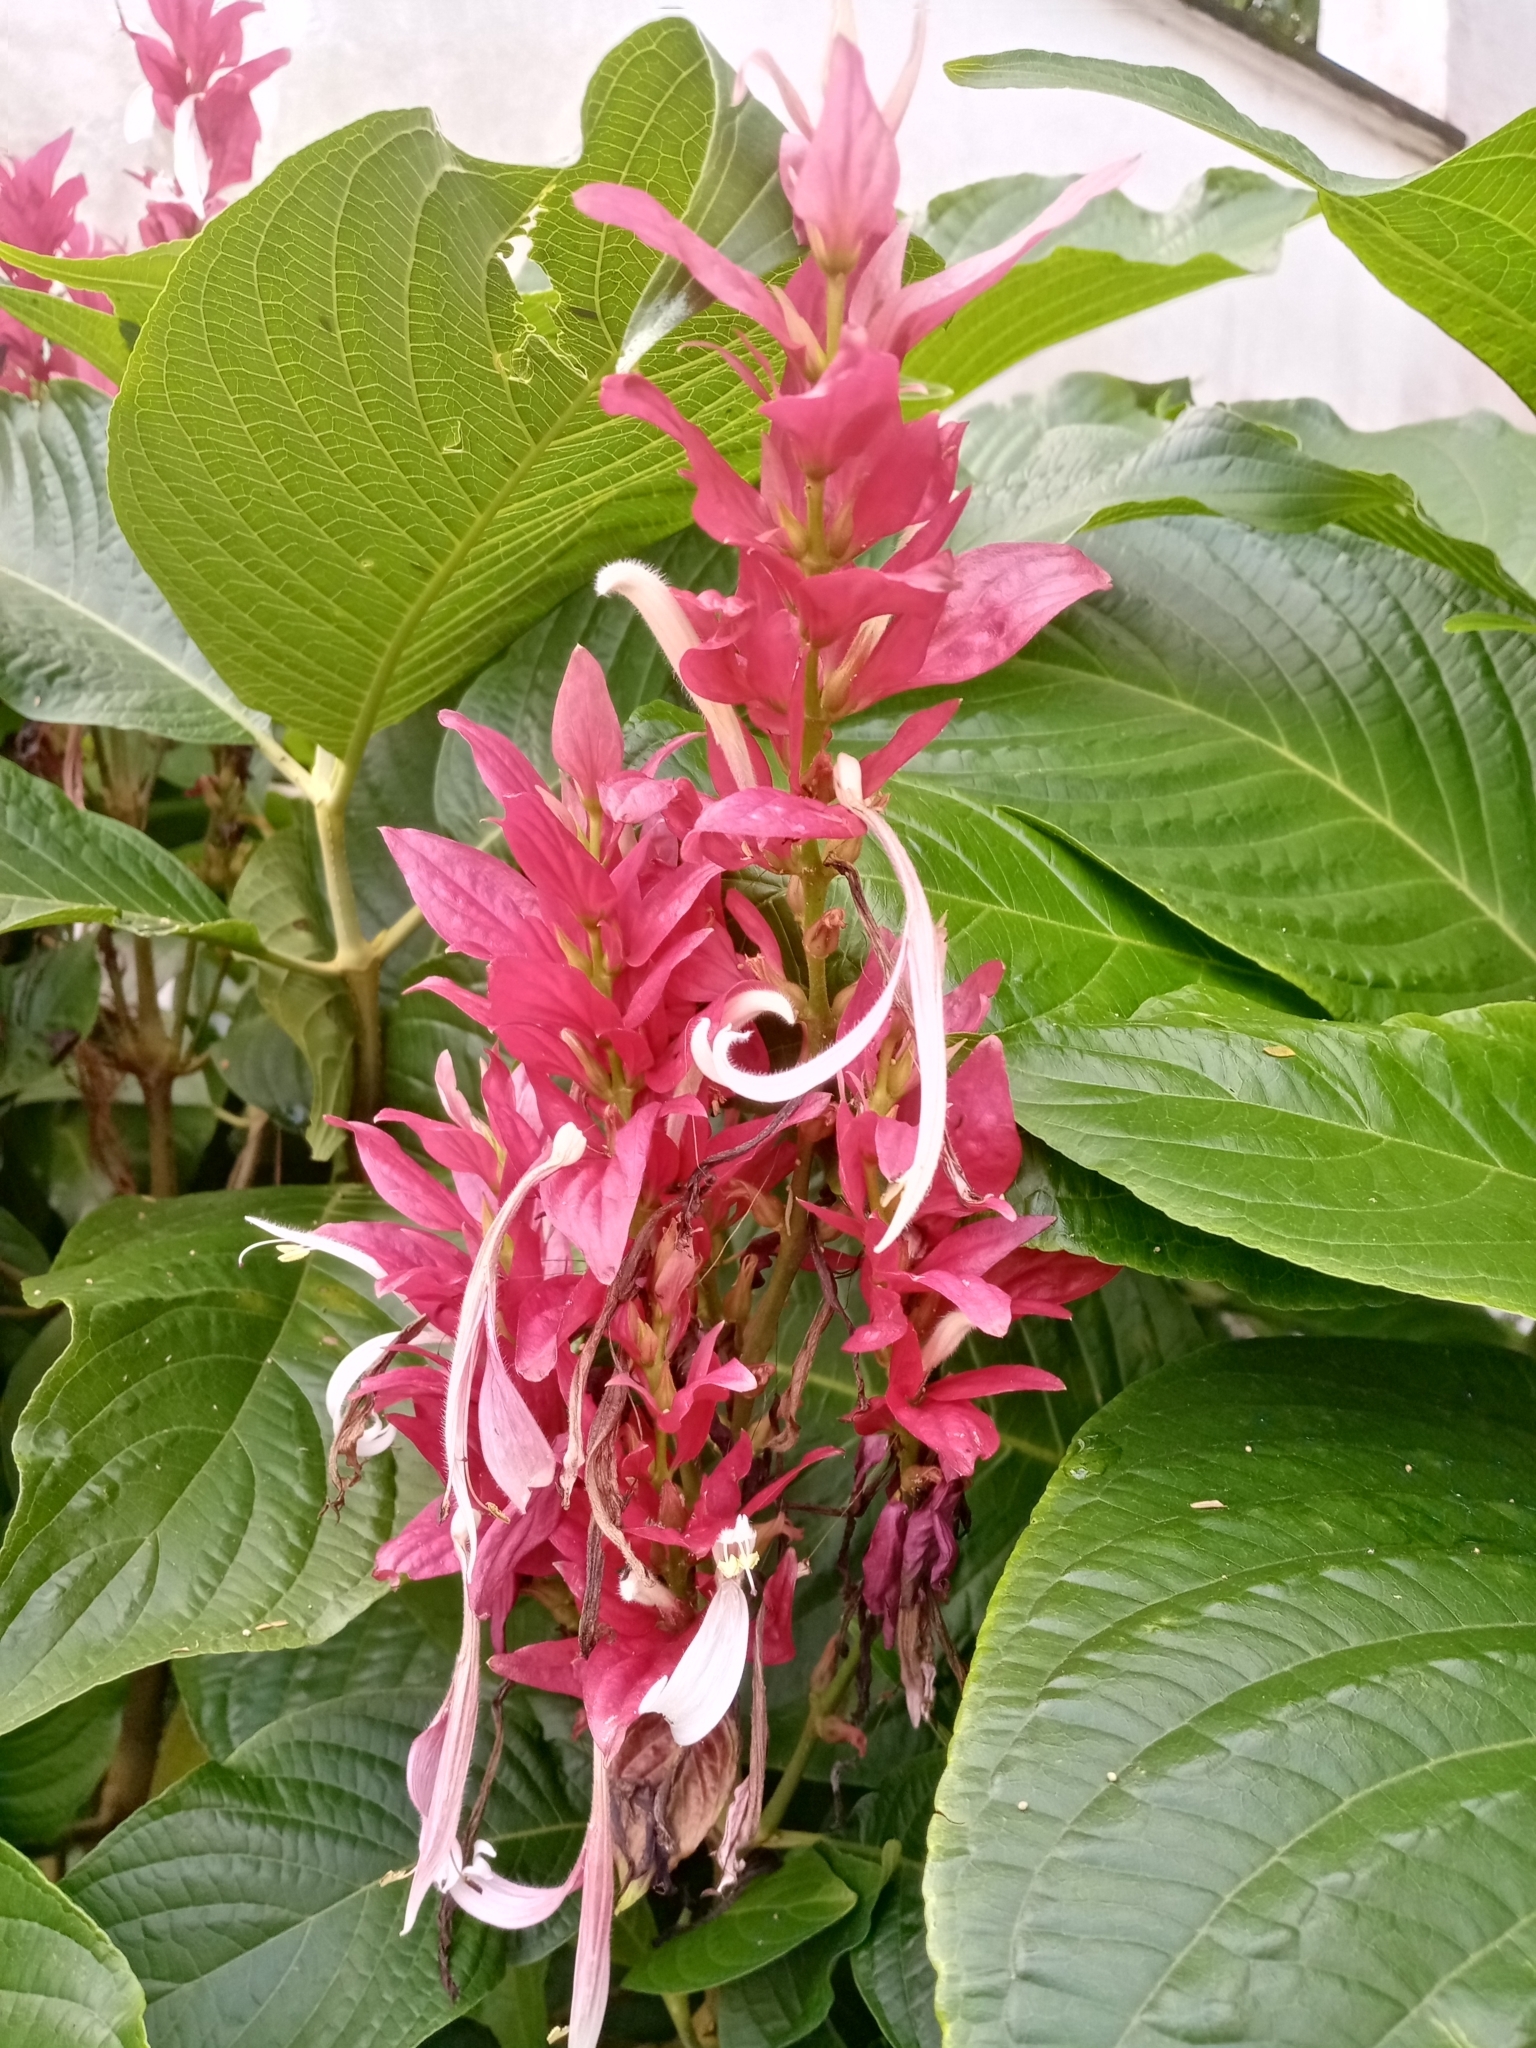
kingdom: Plantae
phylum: Tracheophyta
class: Magnoliopsida
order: Lamiales
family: Acanthaceae
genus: Megaskepasma
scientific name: Megaskepasma erythrochlamys
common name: Brazilian red-cloak
